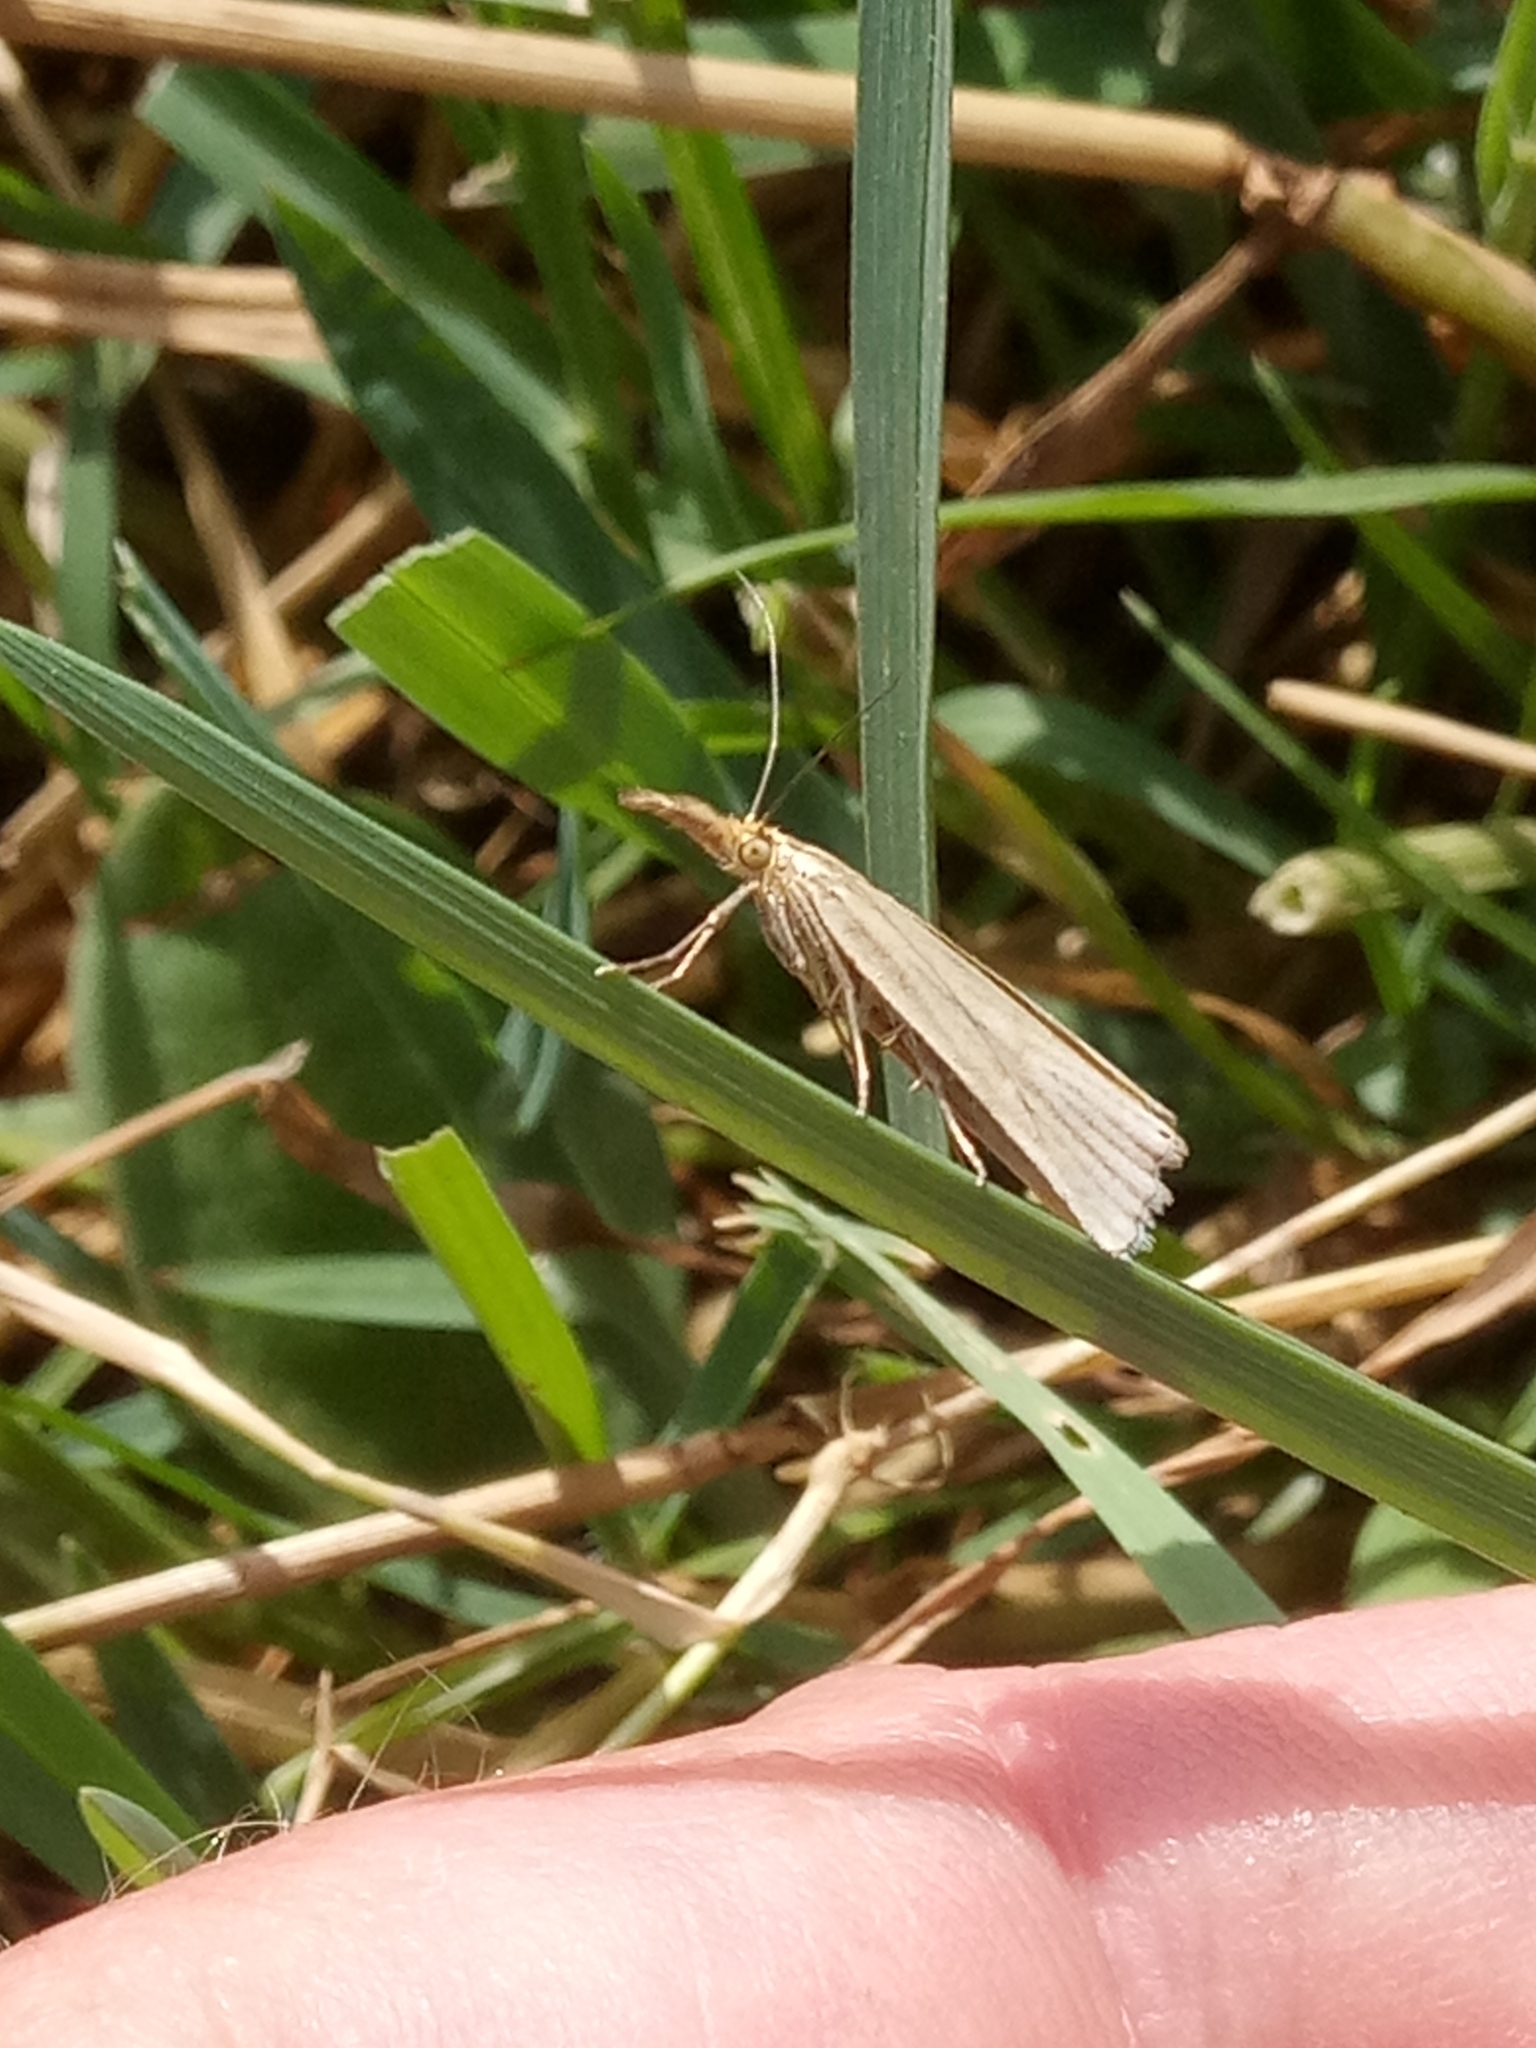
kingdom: Animalia
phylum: Arthropoda
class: Insecta
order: Lepidoptera
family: Crambidae
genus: Xanthocrambus
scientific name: Xanthocrambus caducellus
